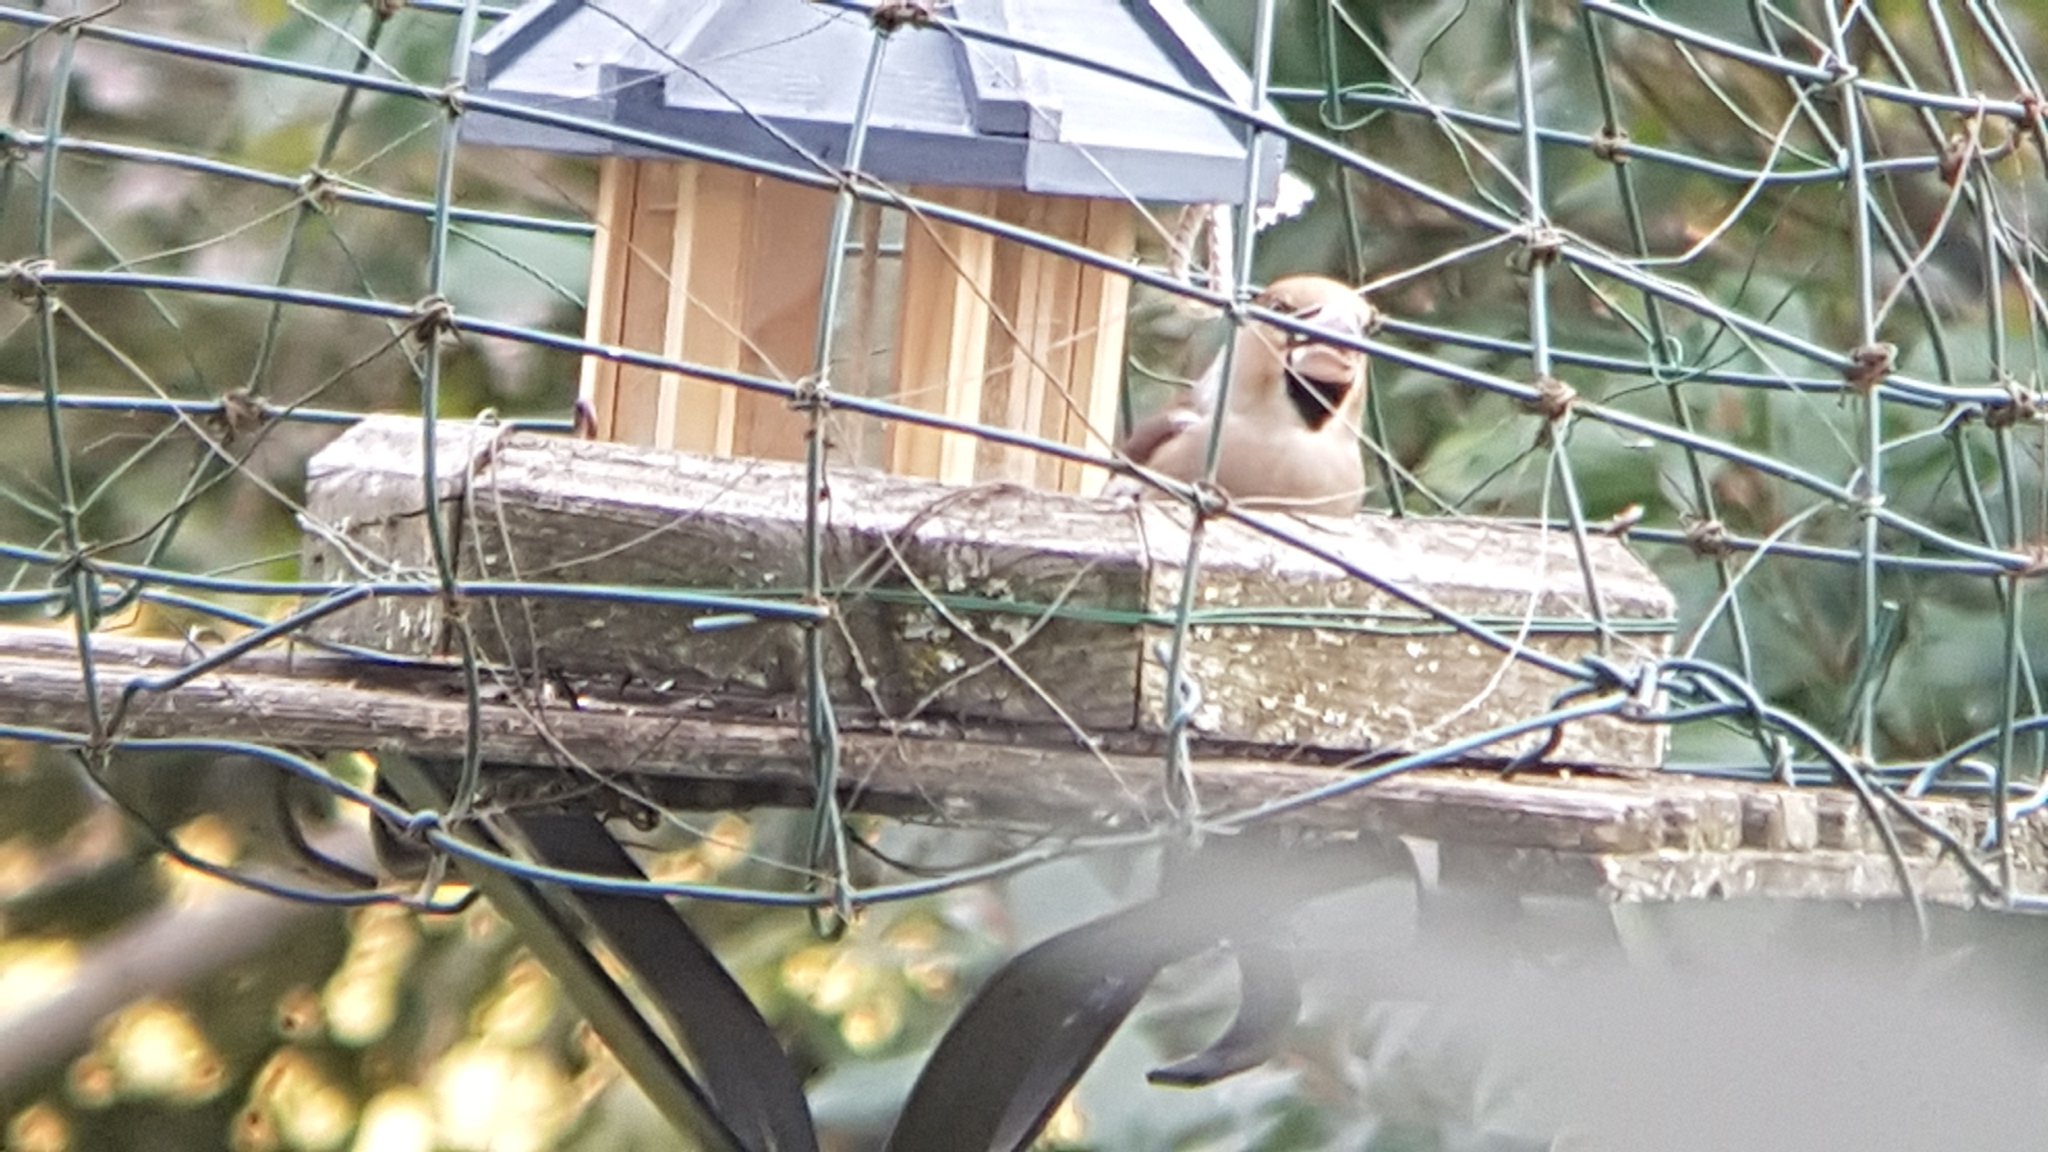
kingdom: Animalia
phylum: Chordata
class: Aves
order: Passeriformes
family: Fringillidae
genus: Coccothraustes
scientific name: Coccothraustes coccothraustes
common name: Hawfinch
